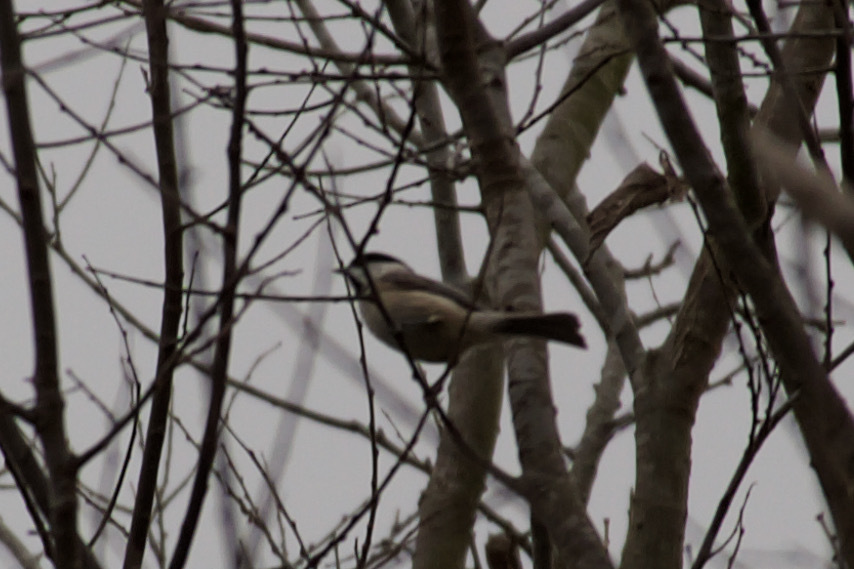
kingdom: Animalia
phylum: Chordata
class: Aves
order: Passeriformes
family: Paridae
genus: Poecile
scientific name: Poecile carolinensis
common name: Carolina chickadee
